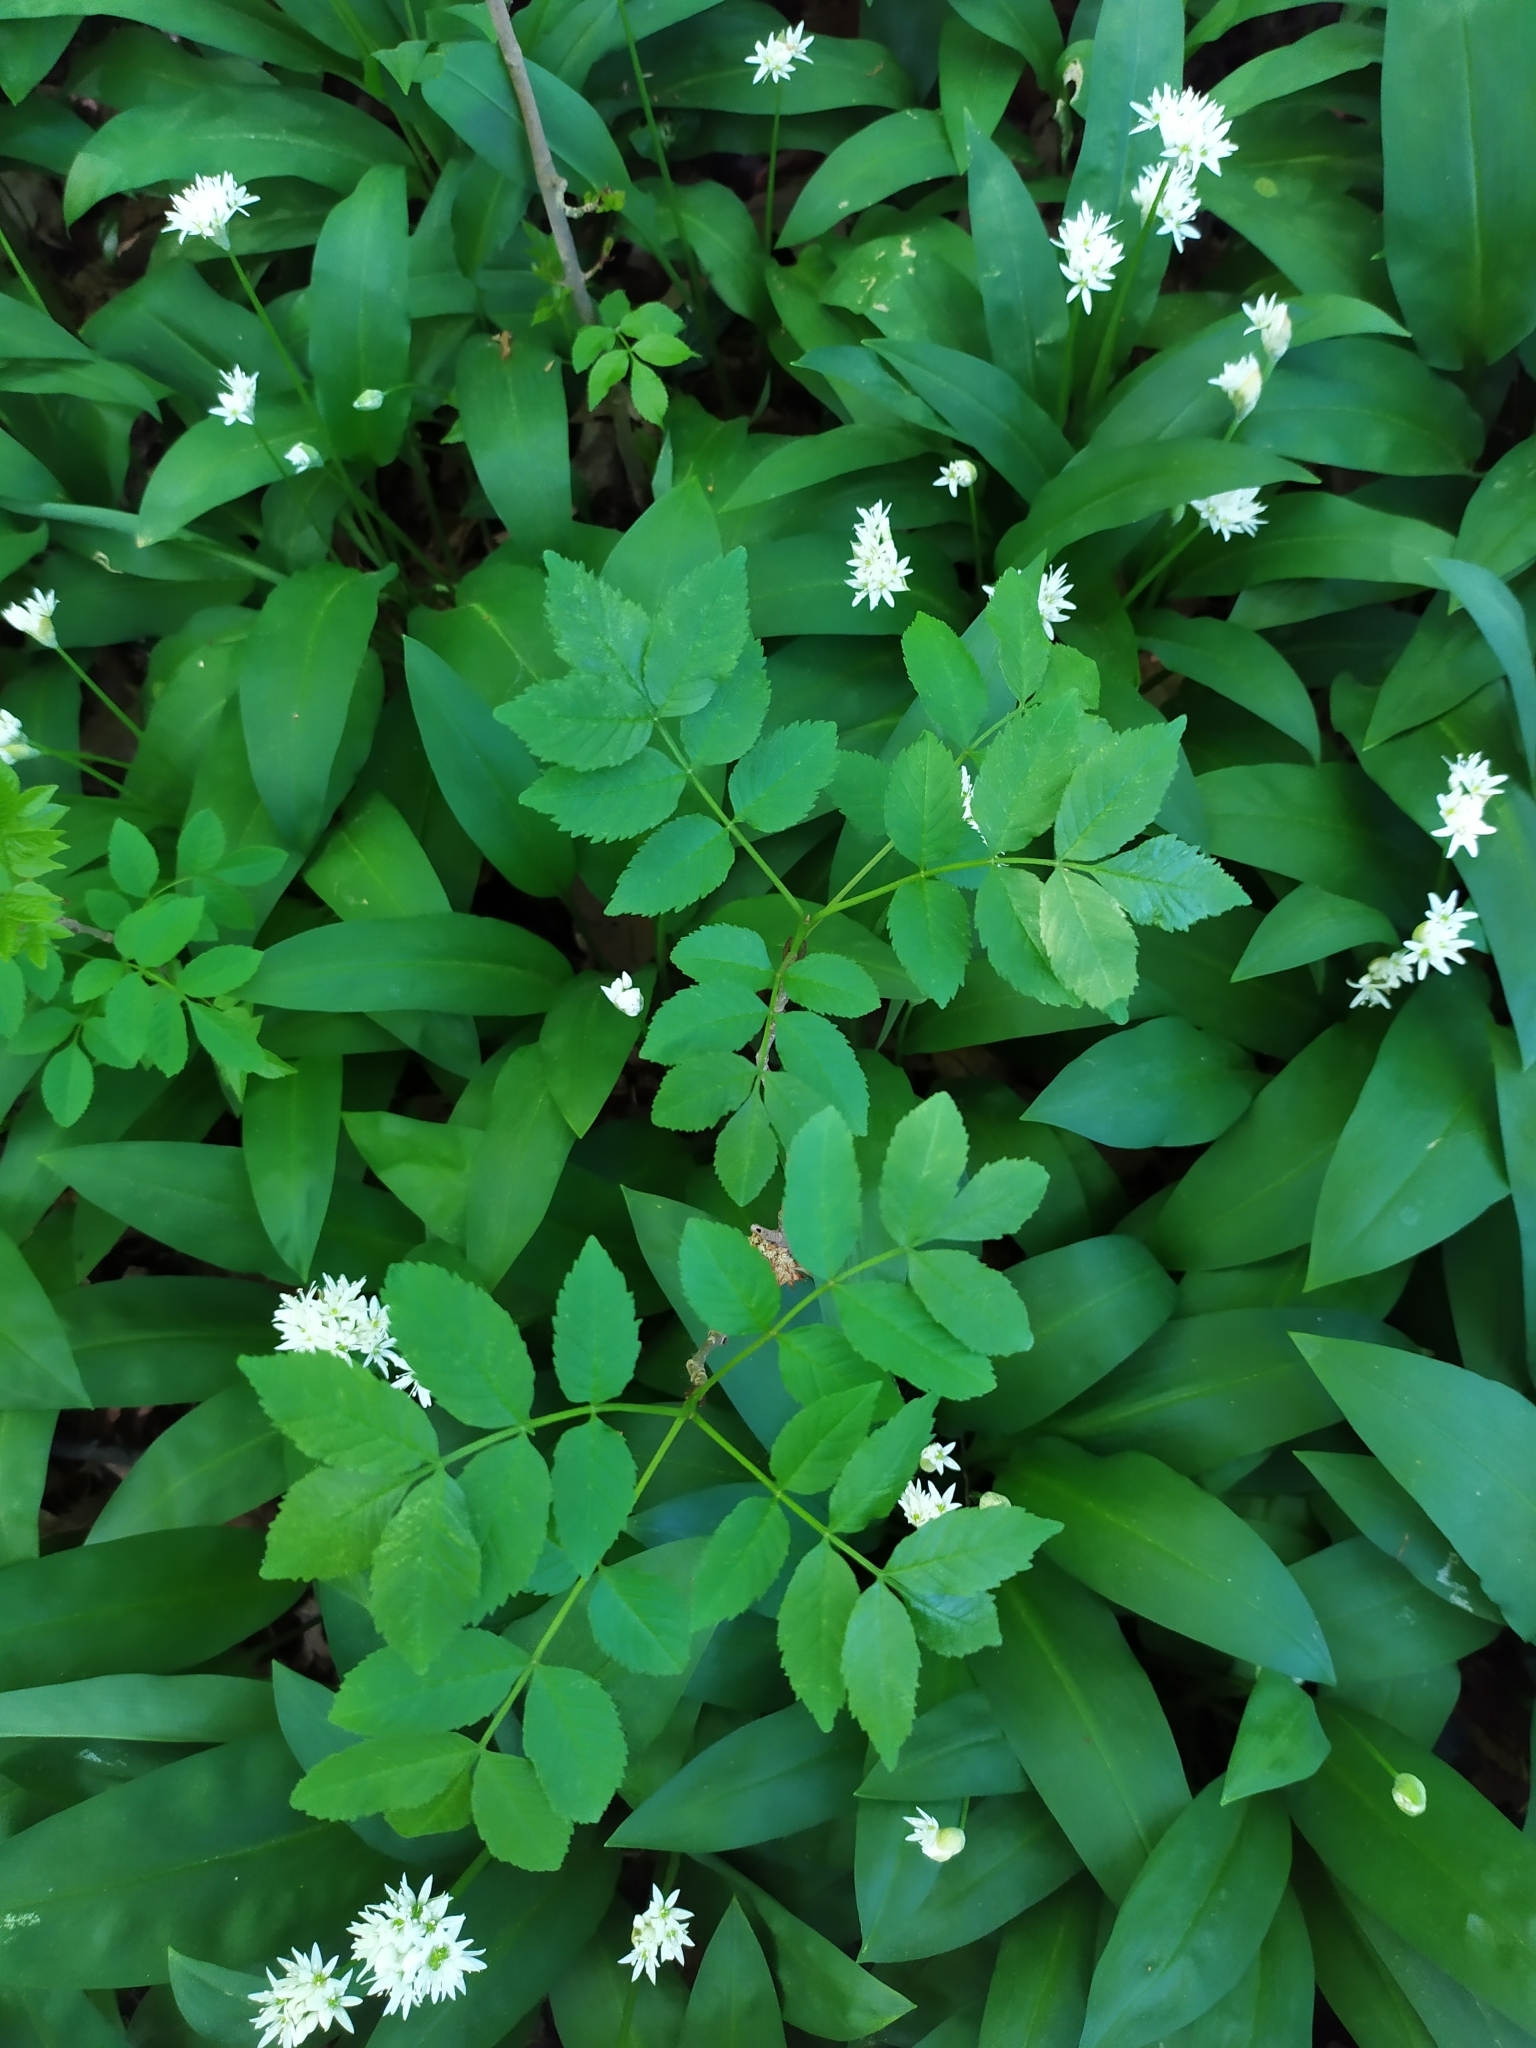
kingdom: Plantae
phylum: Tracheophyta
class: Magnoliopsida
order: Lamiales
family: Oleaceae
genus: Fraxinus
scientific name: Fraxinus excelsior
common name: European ash
